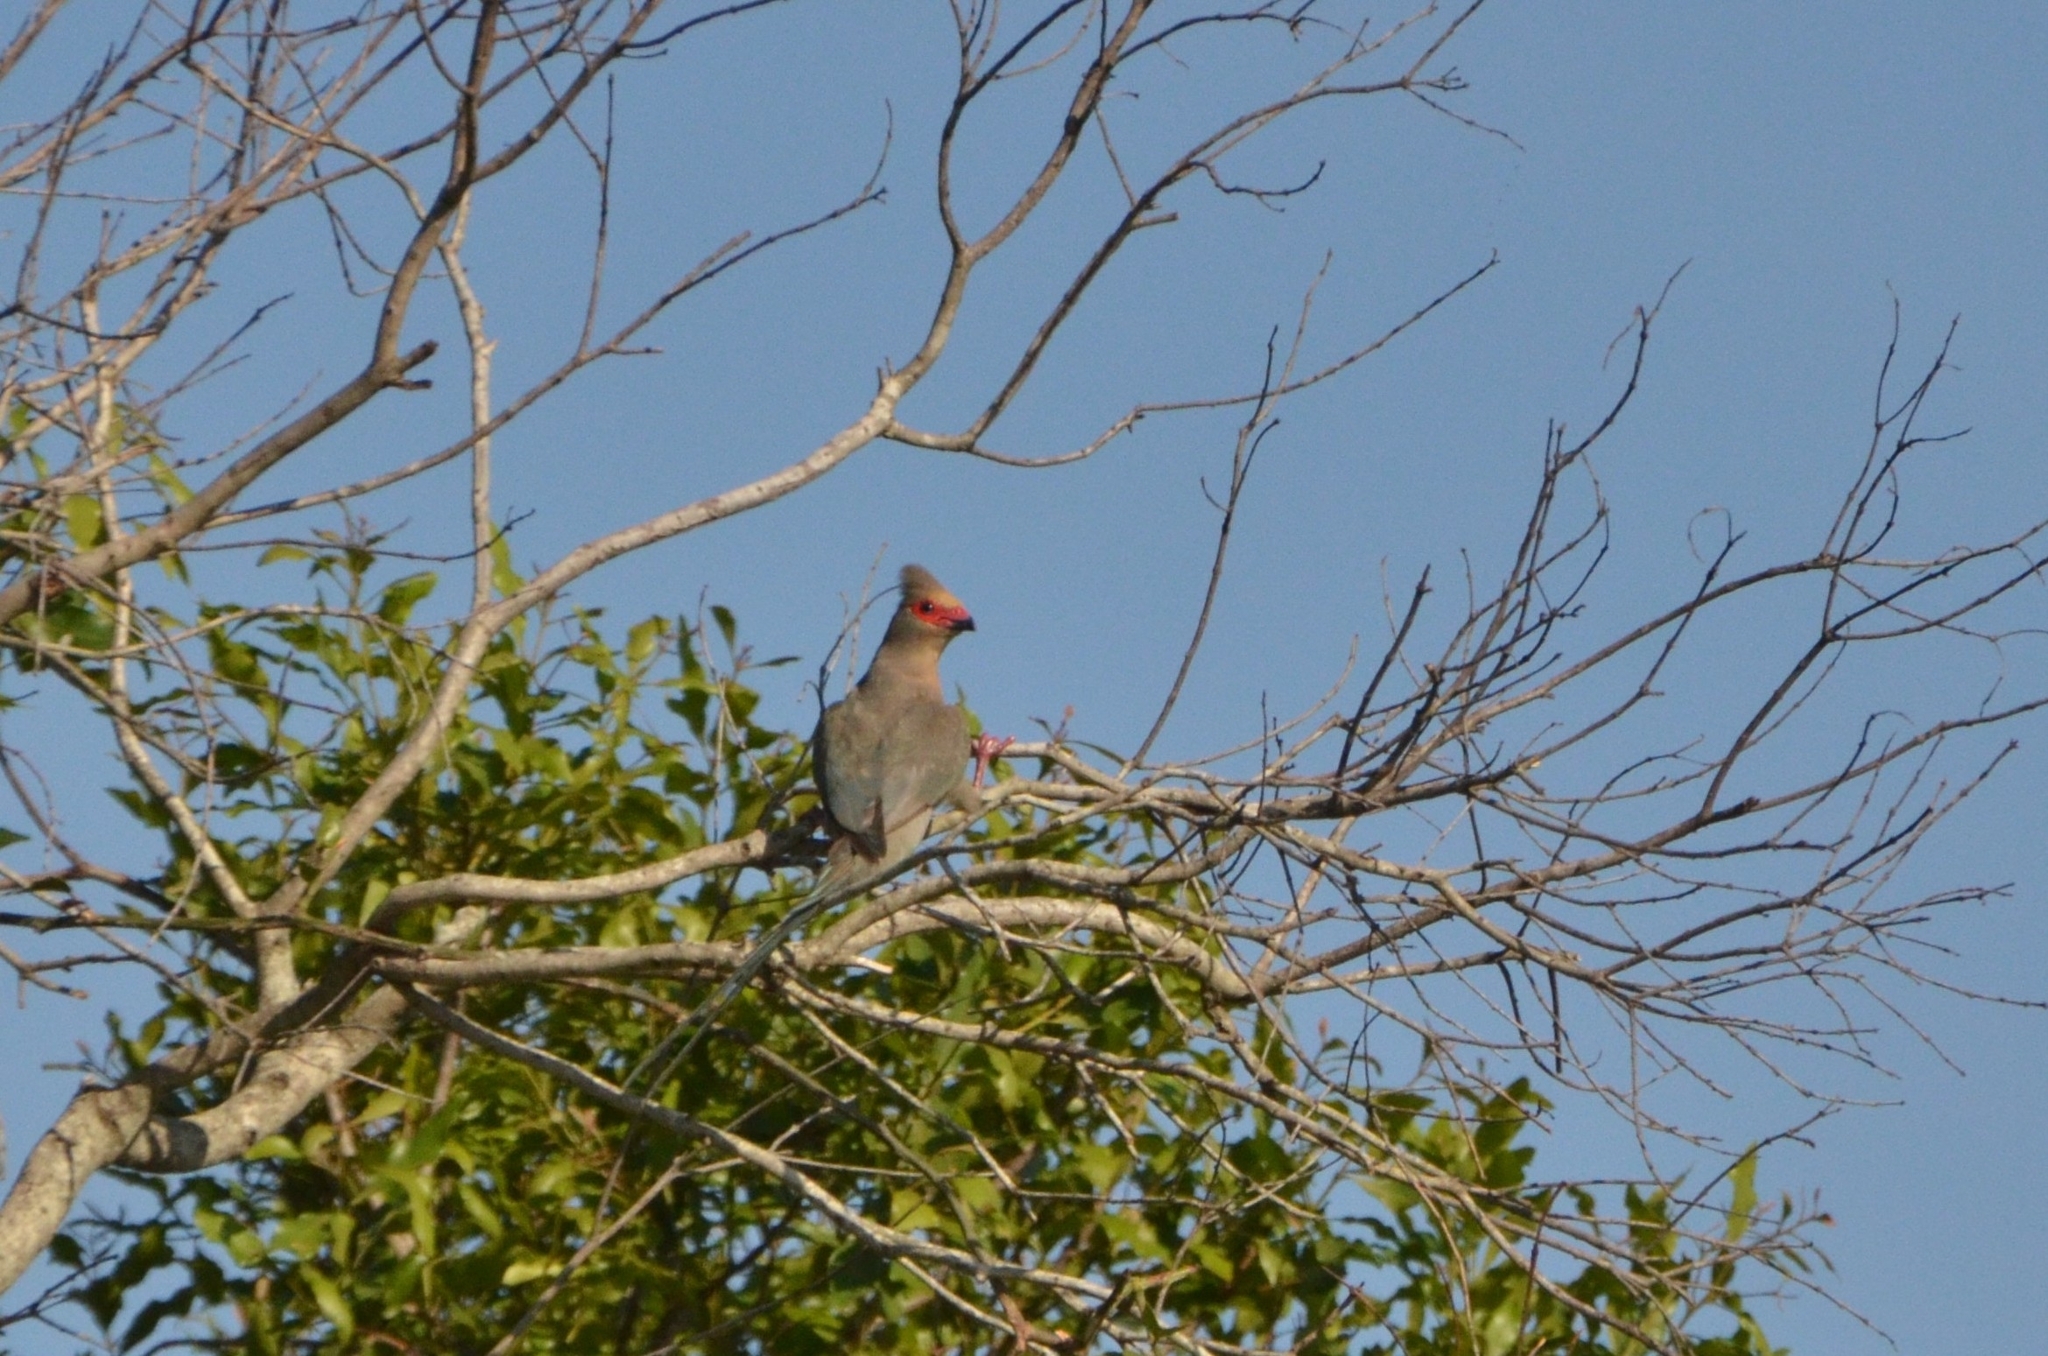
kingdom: Animalia
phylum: Chordata
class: Aves
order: Coliiformes
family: Coliidae
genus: Urocolius
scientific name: Urocolius indicus
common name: Red-faced mousebird
